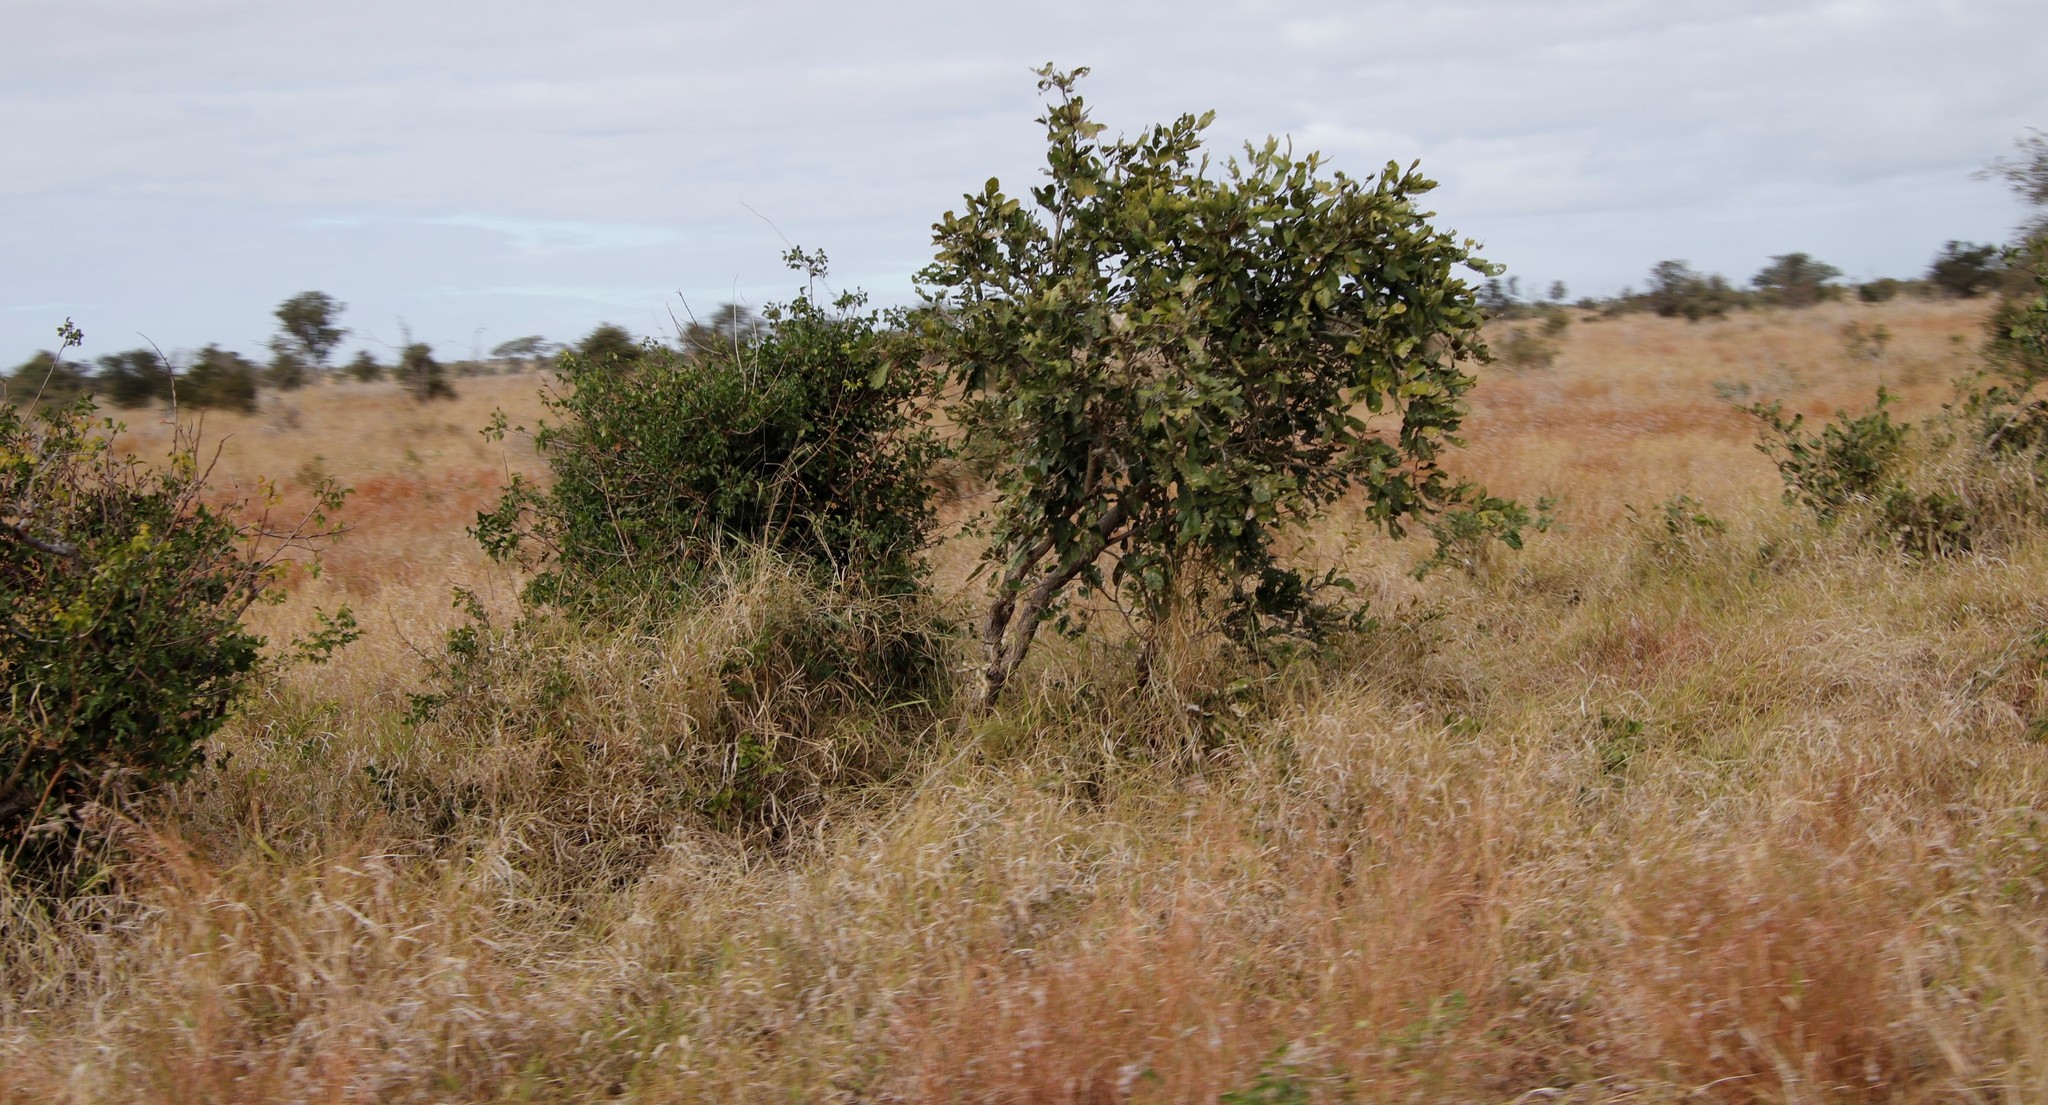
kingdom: Plantae
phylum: Tracheophyta
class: Magnoliopsida
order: Fabales
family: Fabaceae
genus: Philenoptera
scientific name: Philenoptera violacea
